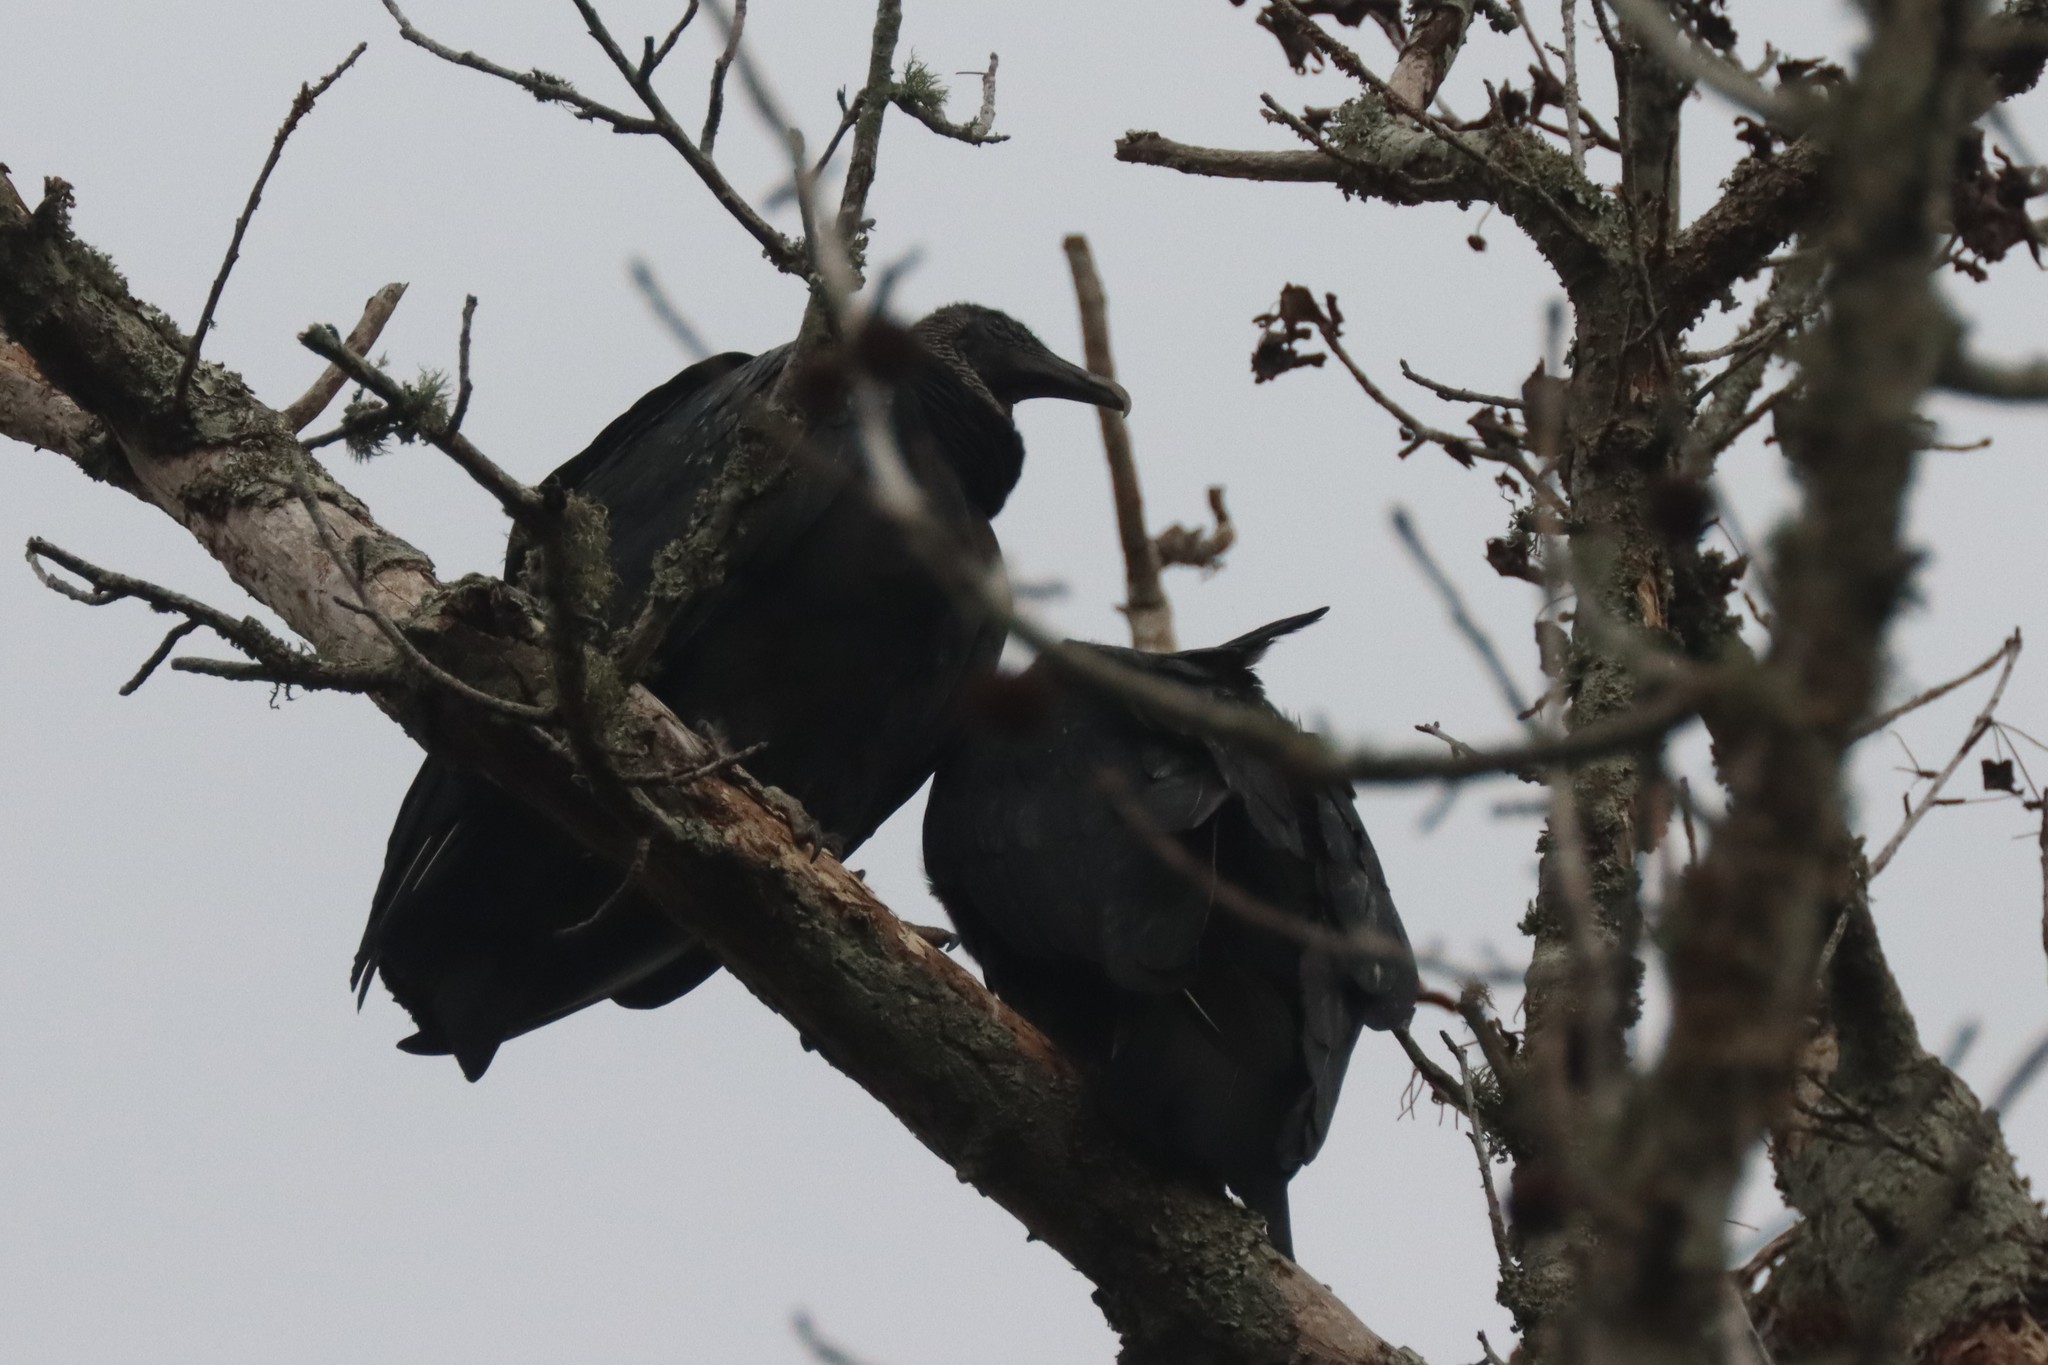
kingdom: Animalia
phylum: Chordata
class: Aves
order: Accipitriformes
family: Cathartidae
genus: Coragyps
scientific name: Coragyps atratus
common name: Black vulture
